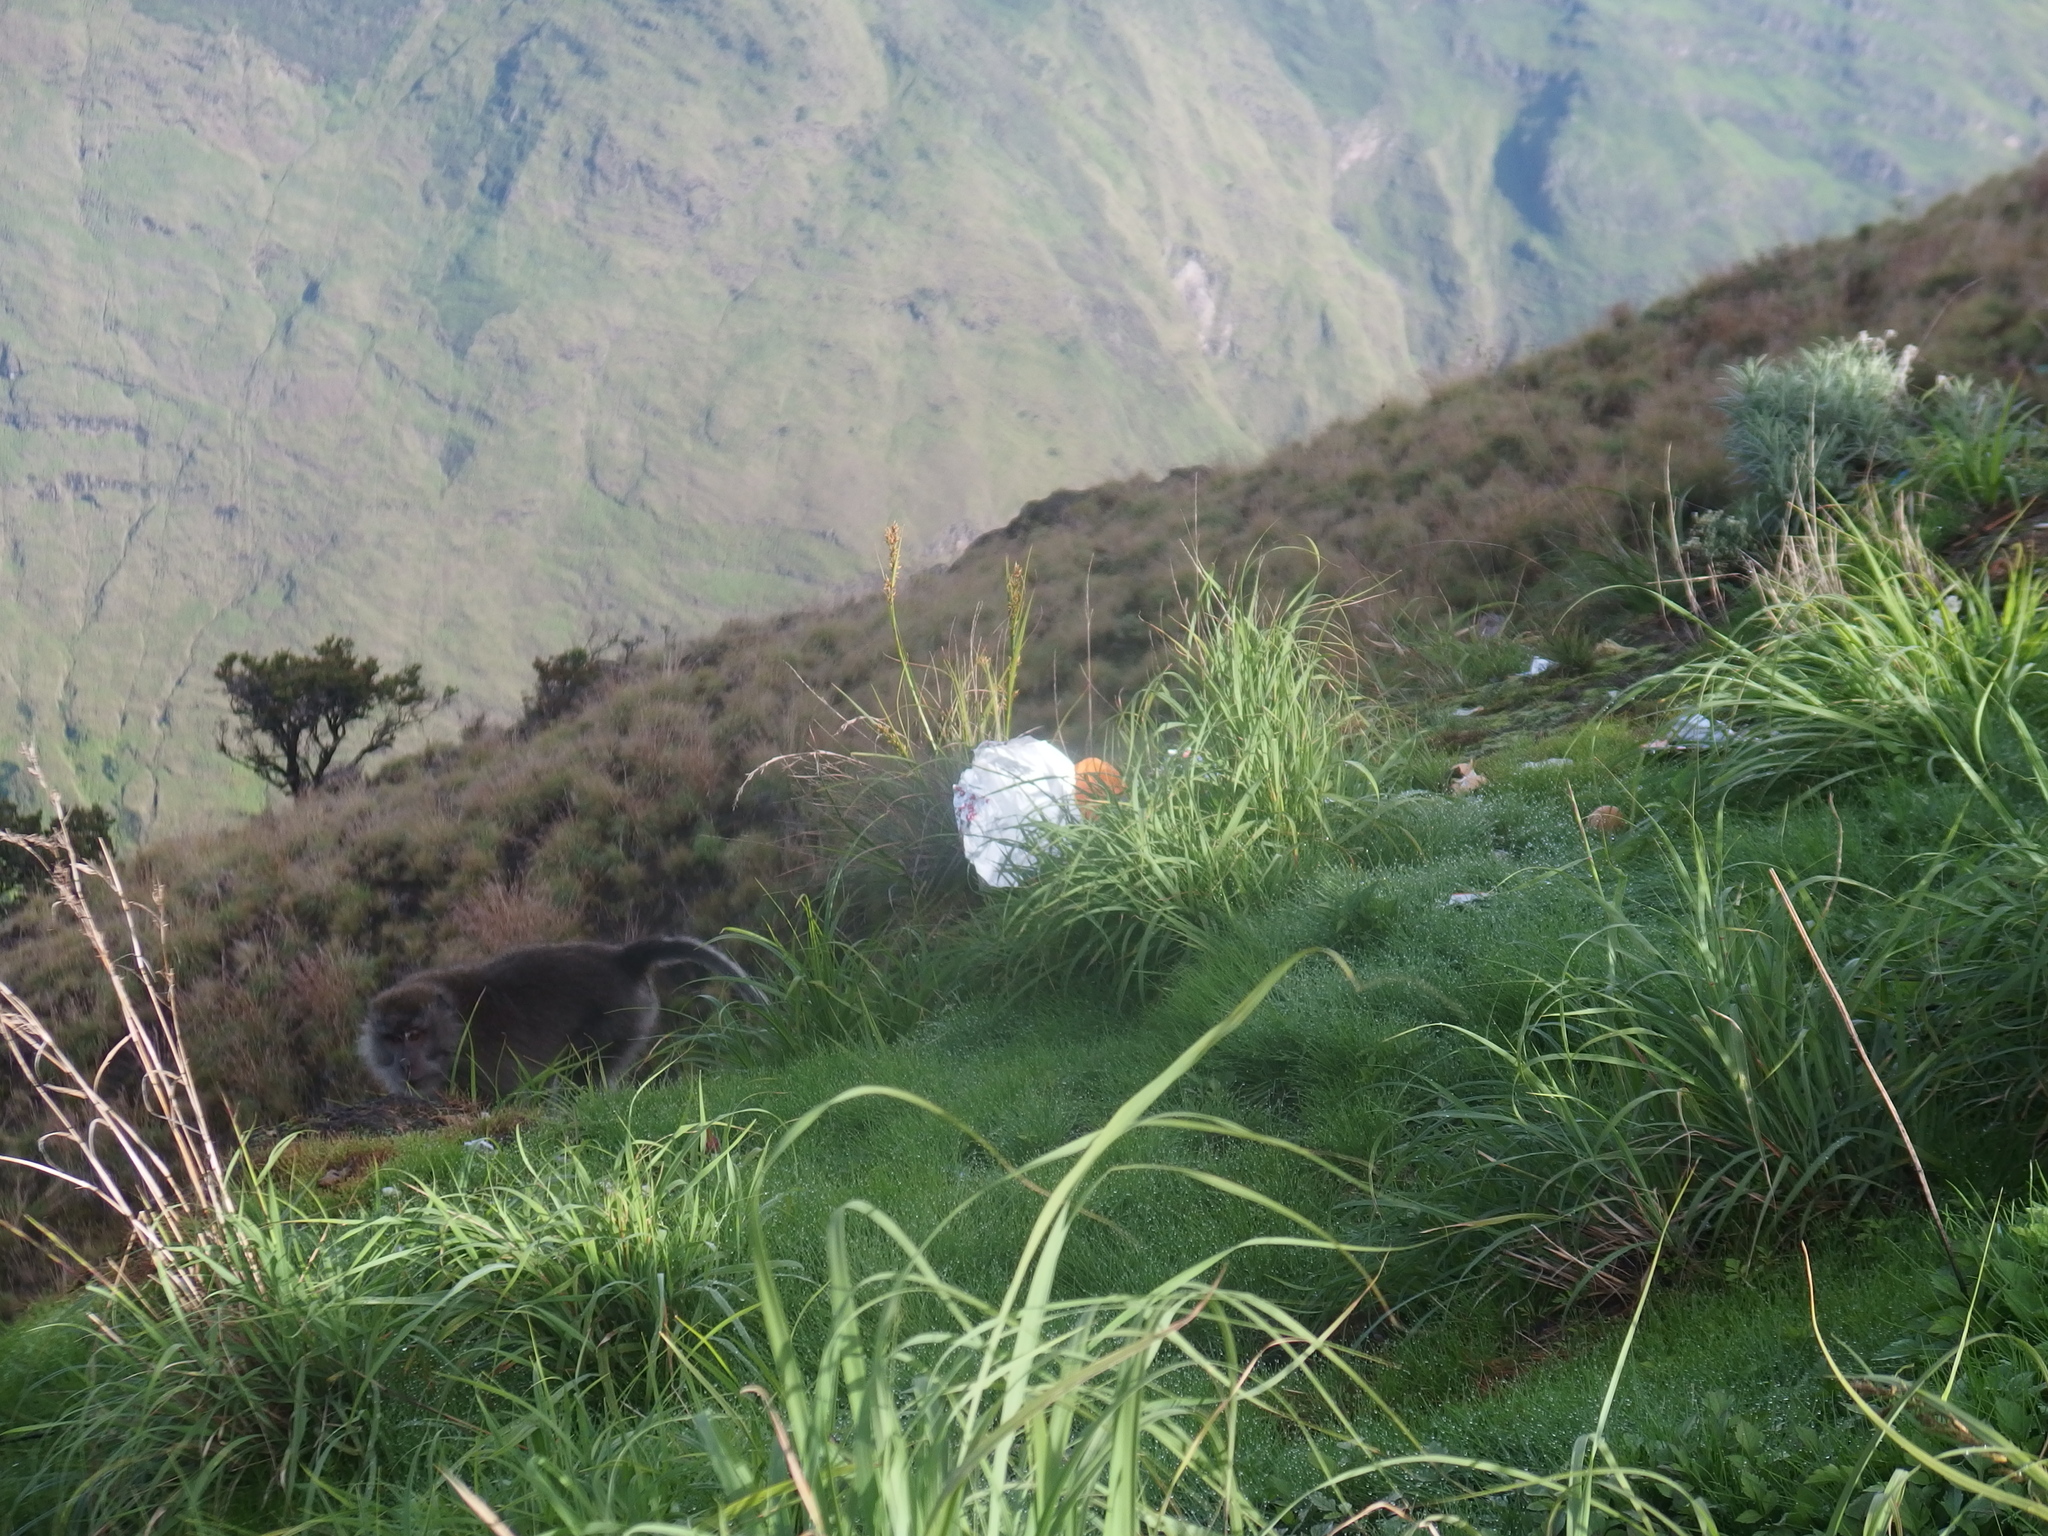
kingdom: Animalia
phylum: Chordata
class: Mammalia
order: Primates
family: Cercopithecidae
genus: Macaca
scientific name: Macaca fascicularis
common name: Crab-eating macaque
